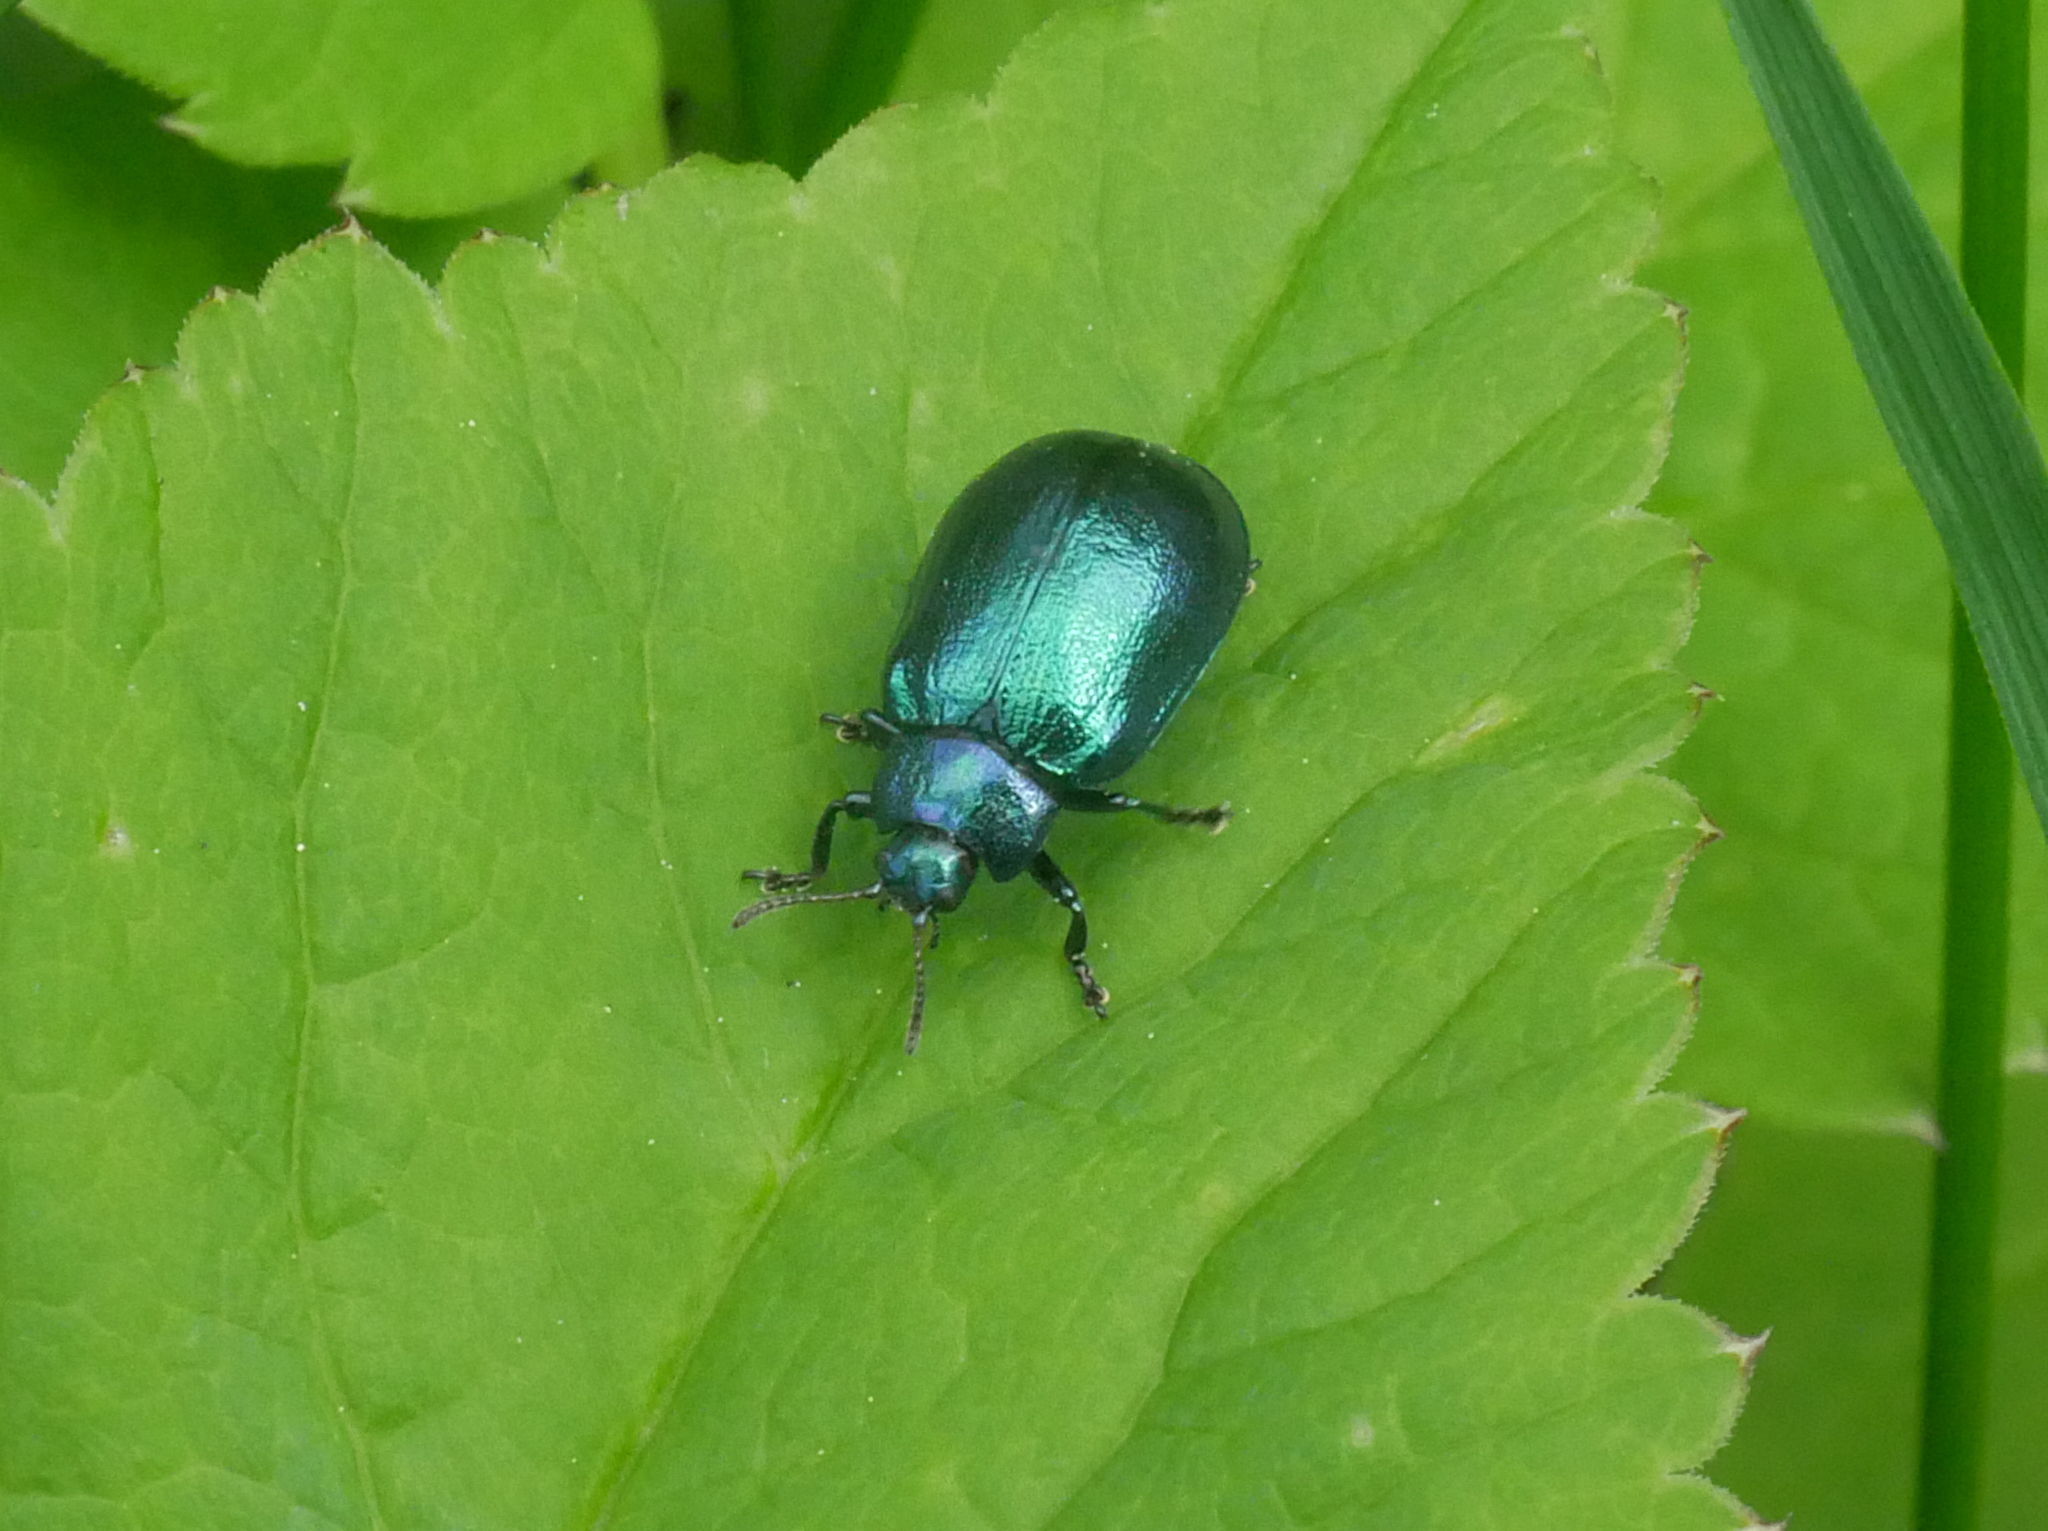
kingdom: Animalia
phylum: Arthropoda
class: Insecta
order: Coleoptera
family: Chrysomelidae
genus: Plagiosterna
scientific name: Plagiosterna aenea
